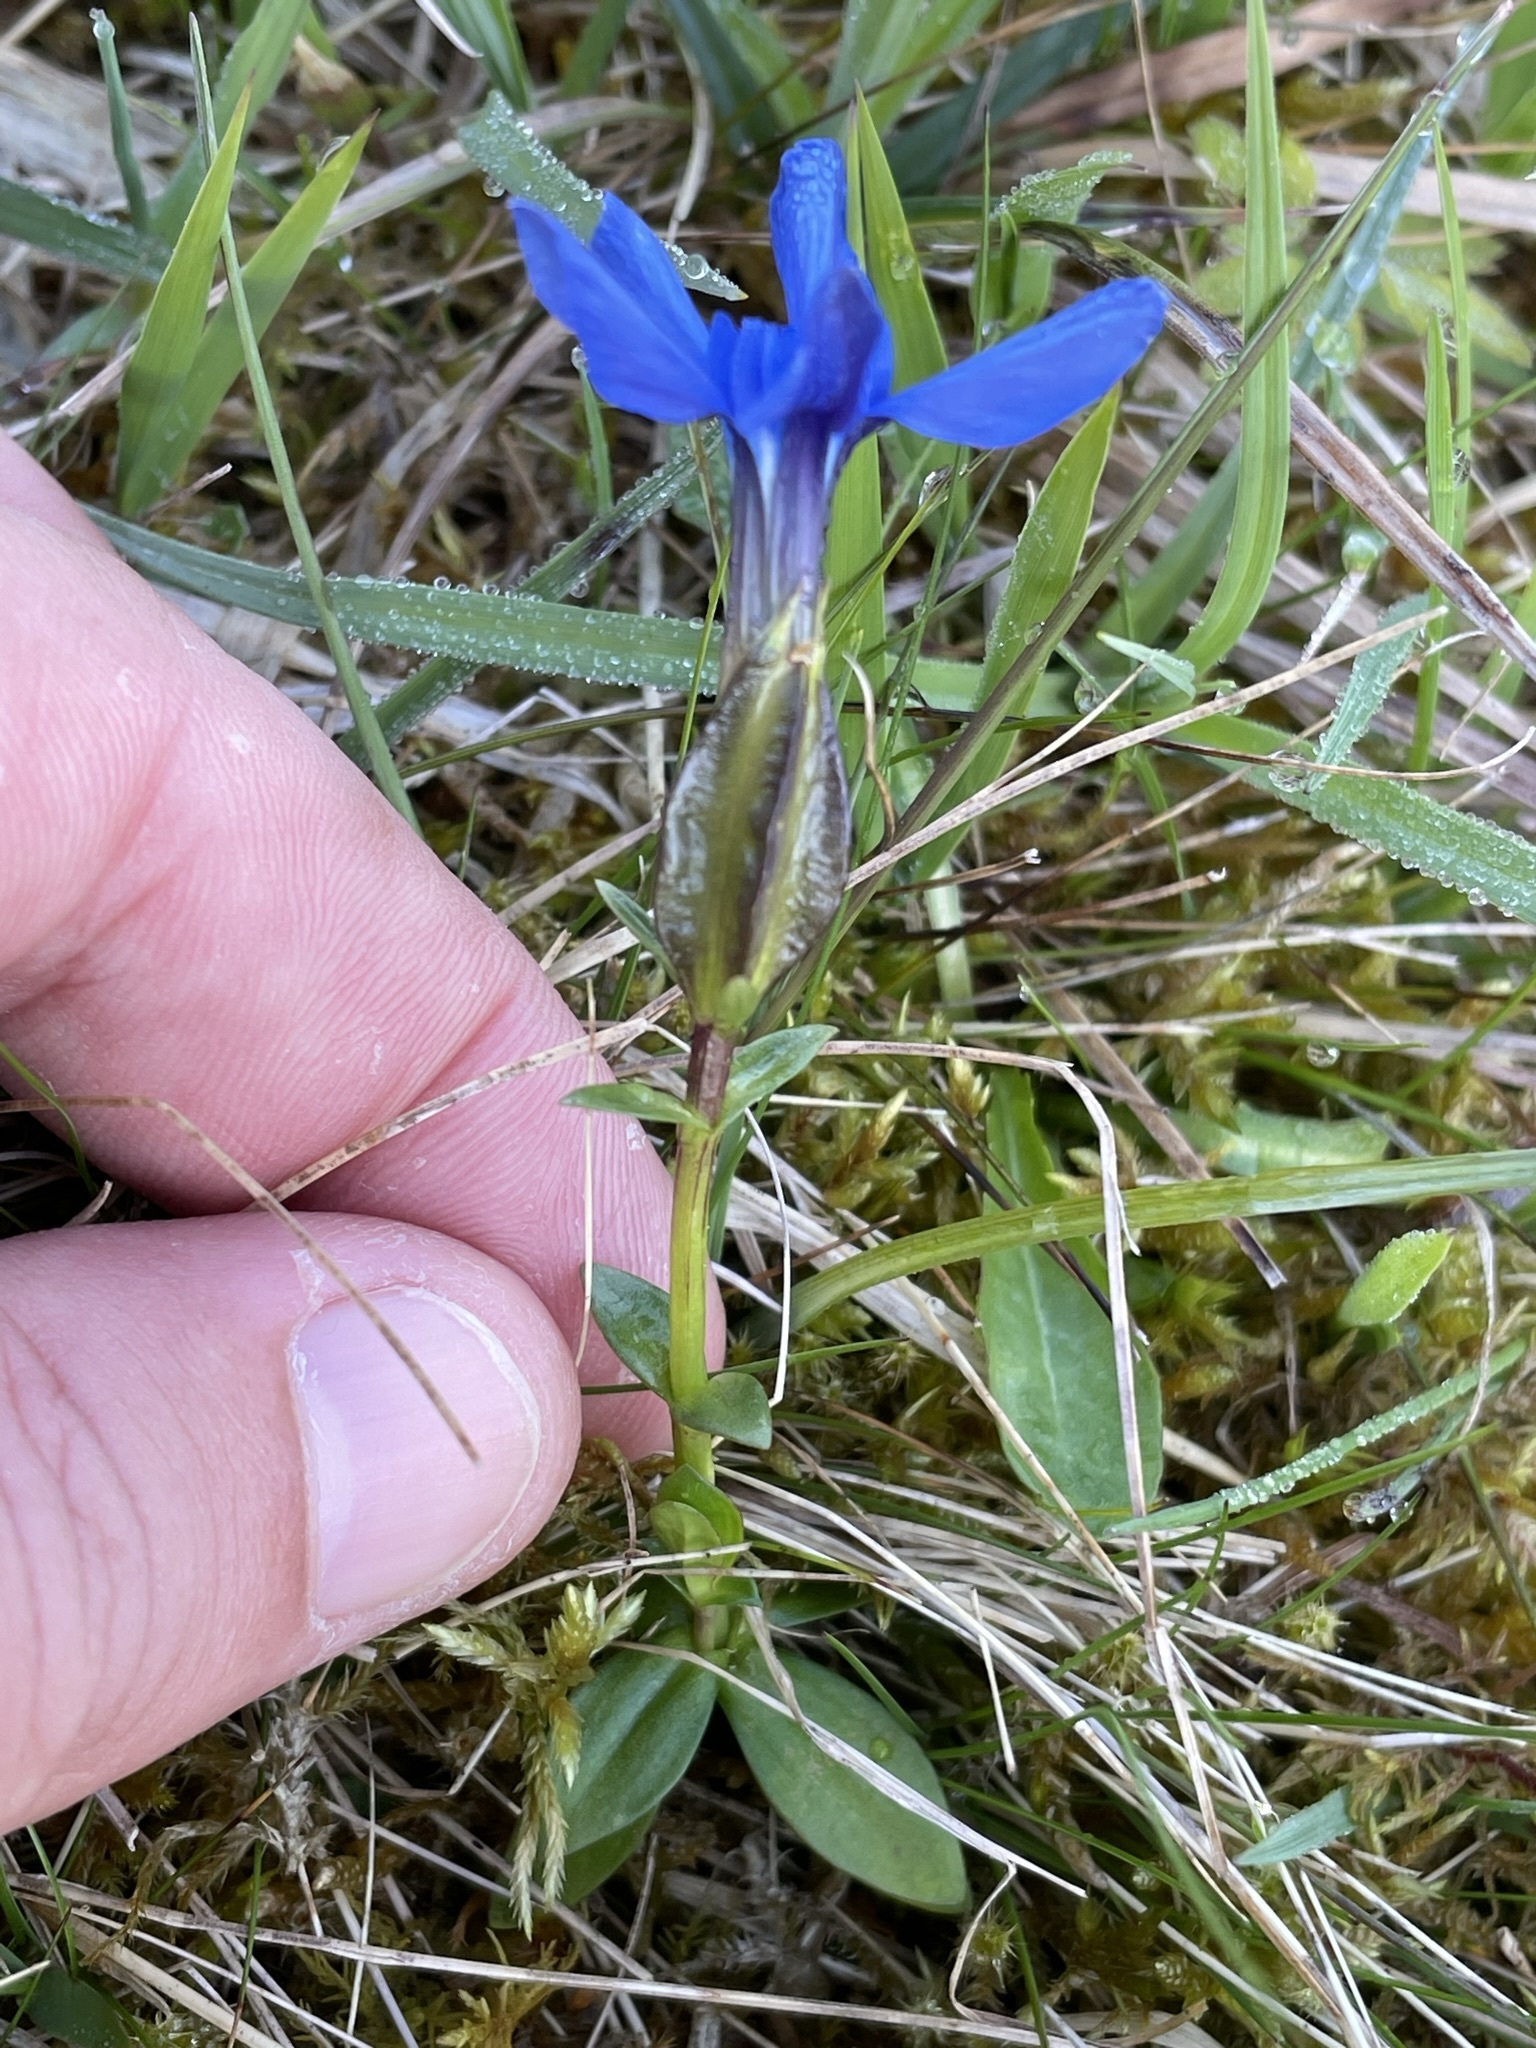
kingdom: Plantae
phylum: Tracheophyta
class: Magnoliopsida
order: Gentianales
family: Gentianaceae
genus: Gentiana
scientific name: Gentiana verna
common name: Spring gentian
